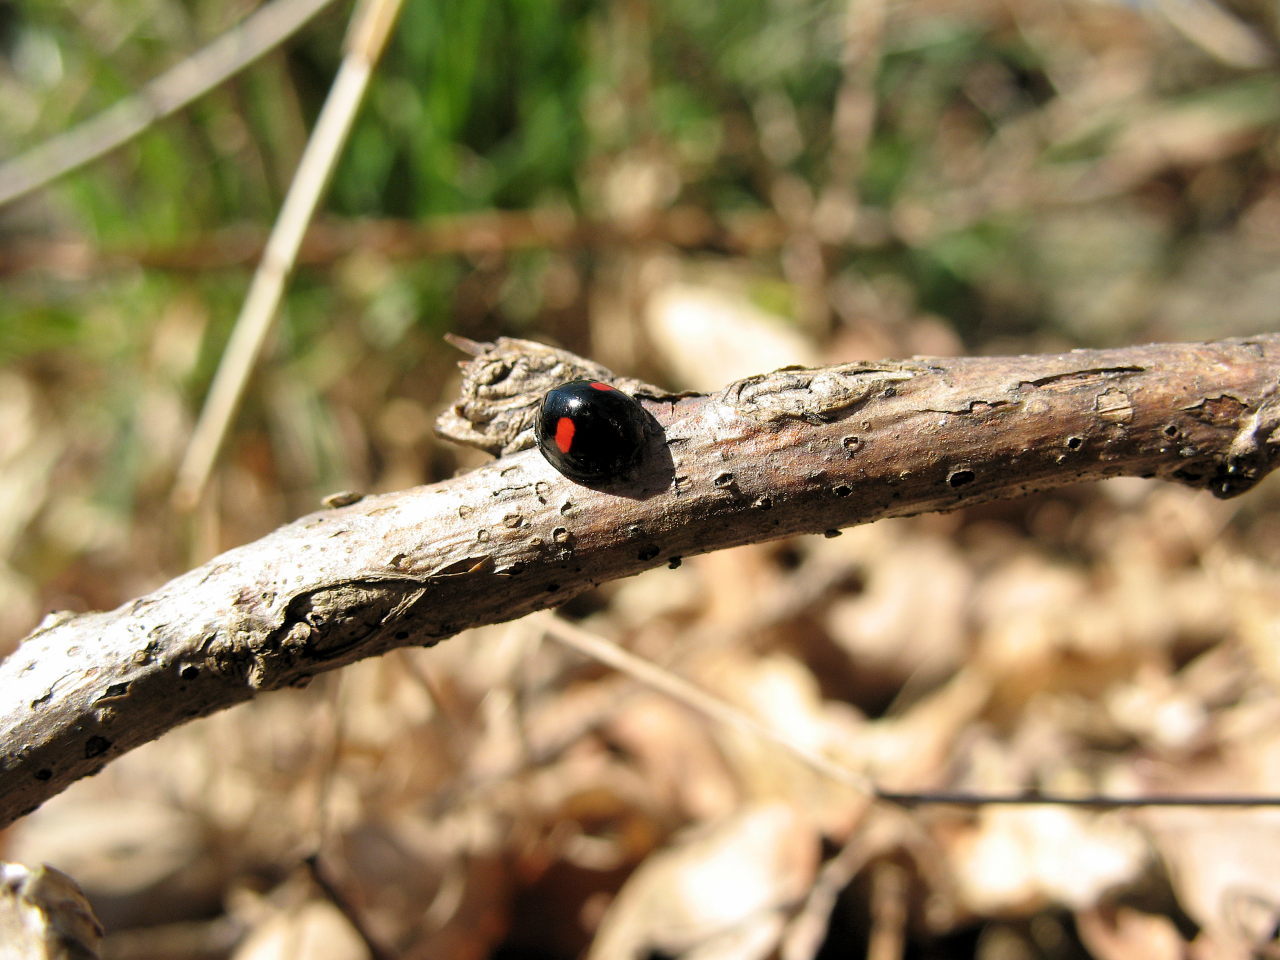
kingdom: Animalia
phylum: Arthropoda
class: Insecta
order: Coleoptera
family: Coccinellidae
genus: Chilocorus
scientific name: Chilocorus renipustulatus
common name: Kidney-spot ladybird
